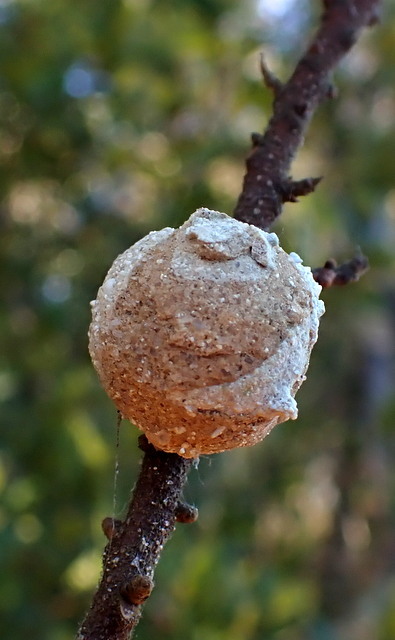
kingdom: Animalia
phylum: Arthropoda
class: Insecta
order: Hymenoptera
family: Eumenidae
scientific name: Eumenidae
